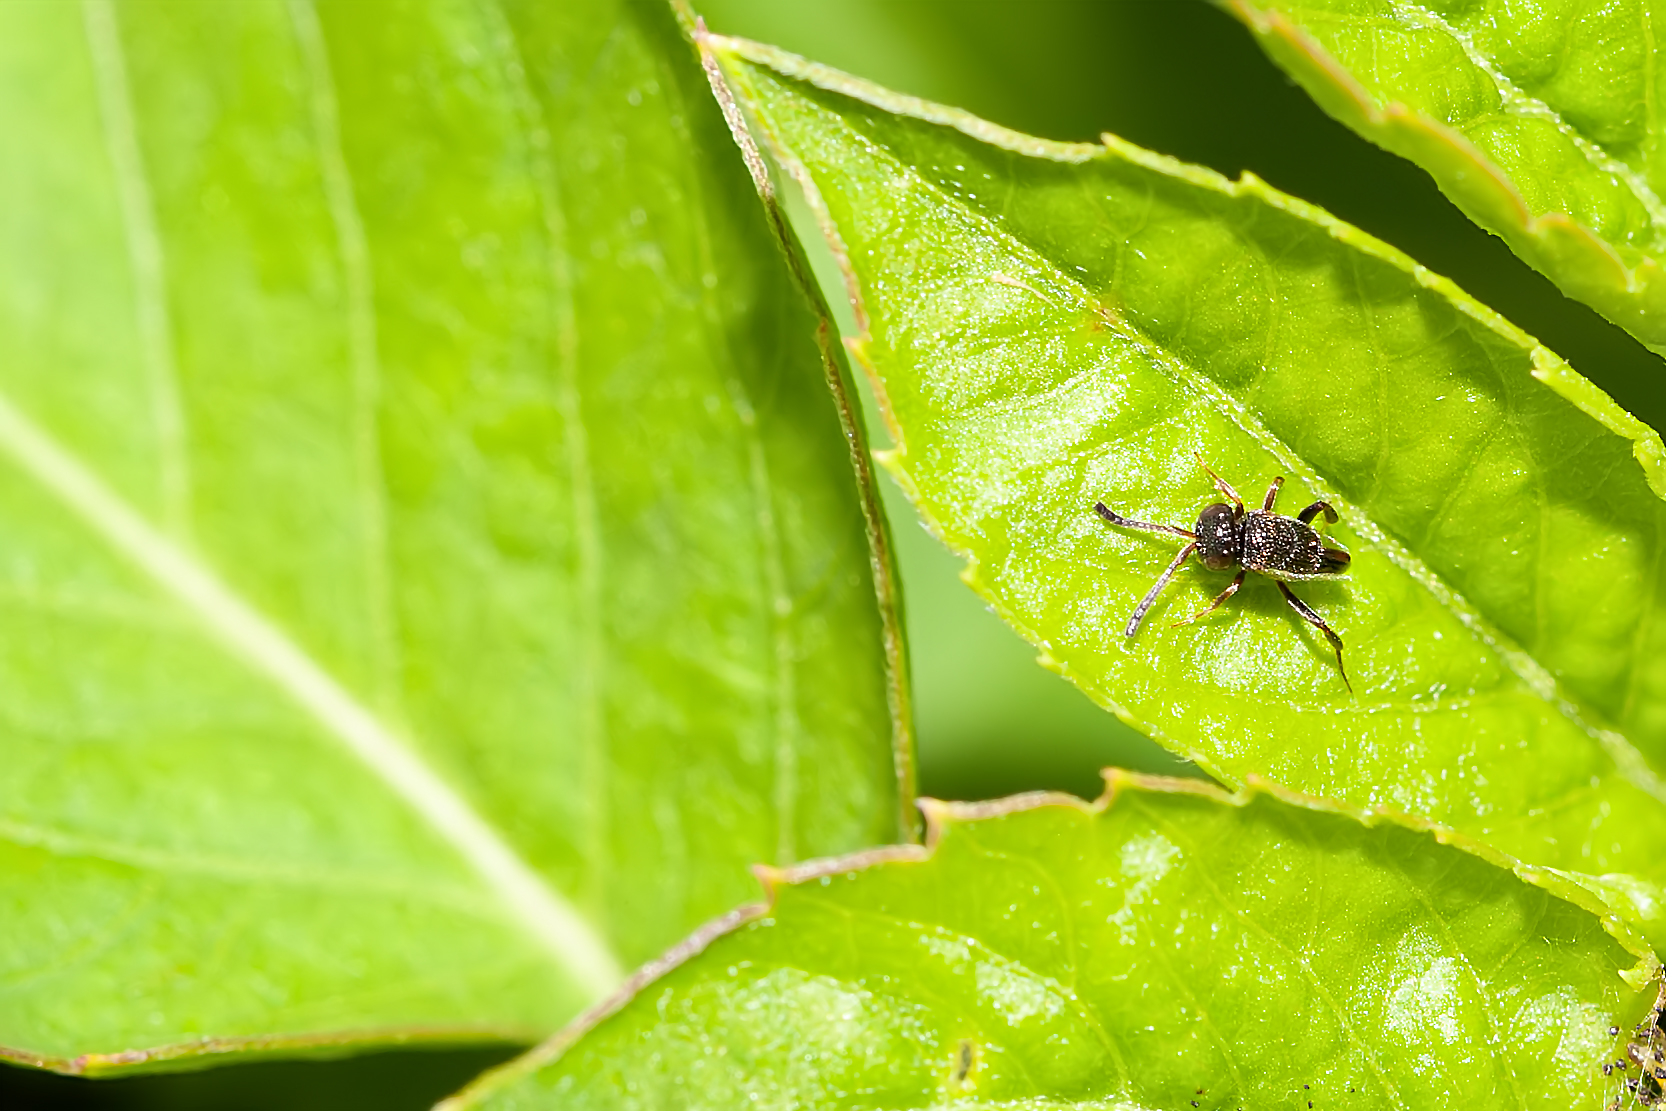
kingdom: Animalia
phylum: Arthropoda
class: Insecta
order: Hymenoptera
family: Evaniidae
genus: Hyptia
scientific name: Hyptia floridana
